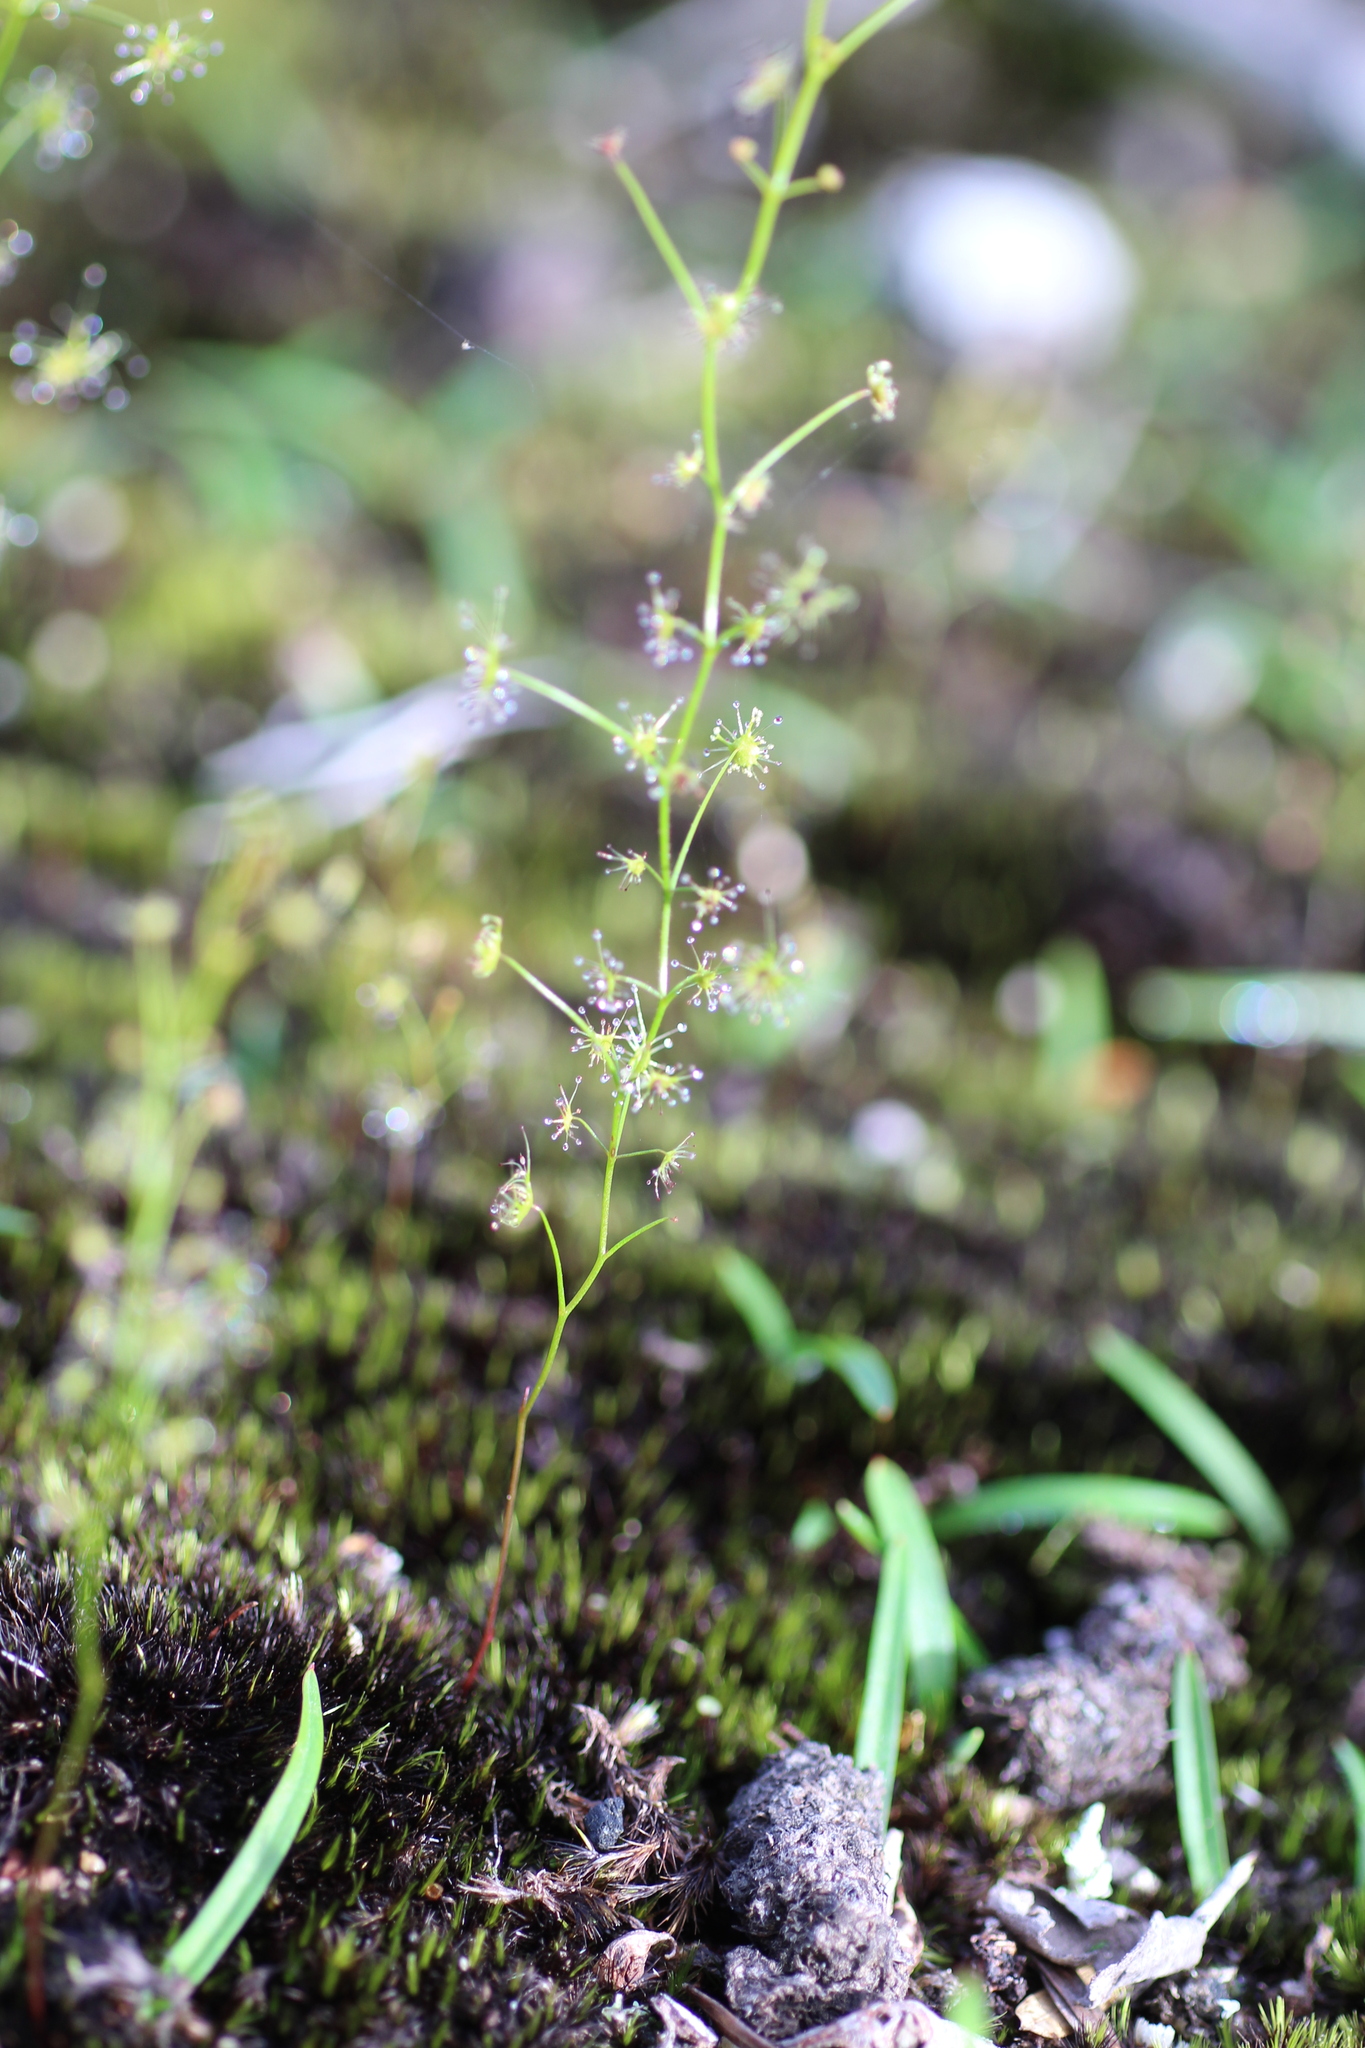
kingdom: Plantae
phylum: Tracheophyta
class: Magnoliopsida
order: Caryophyllales
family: Droseraceae
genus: Drosera
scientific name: Drosera modesta
